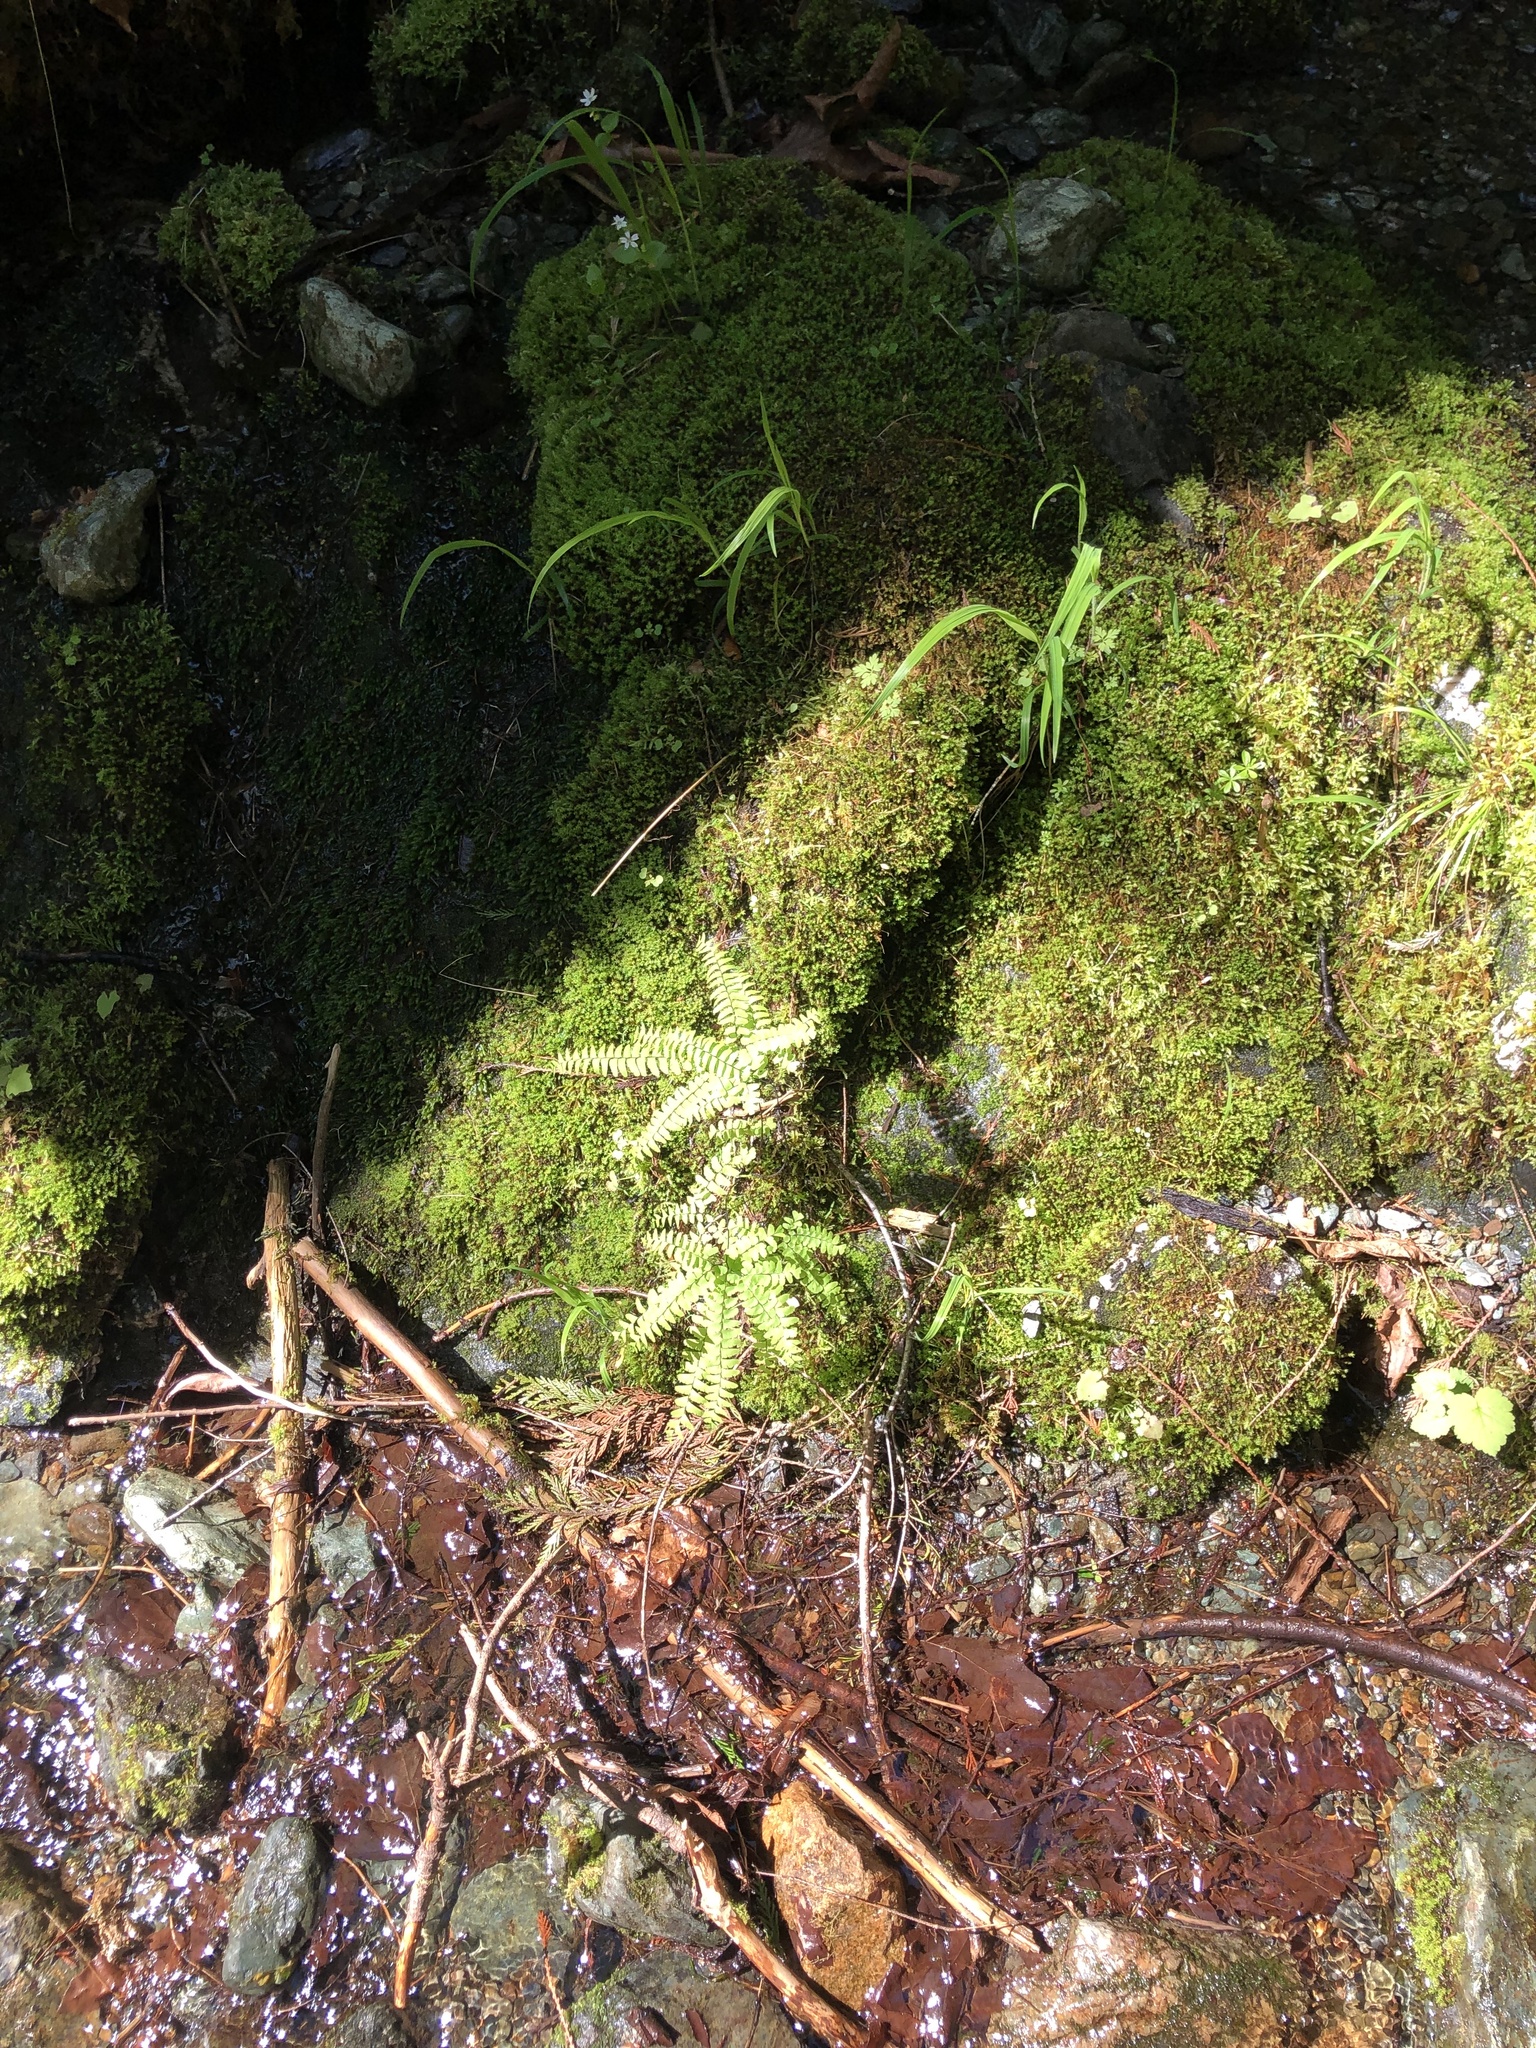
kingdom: Plantae
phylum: Tracheophyta
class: Polypodiopsida
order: Polypodiales
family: Pteridaceae
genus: Adiantum
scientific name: Adiantum aleuticum
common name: Aleutian maidenhair fern
